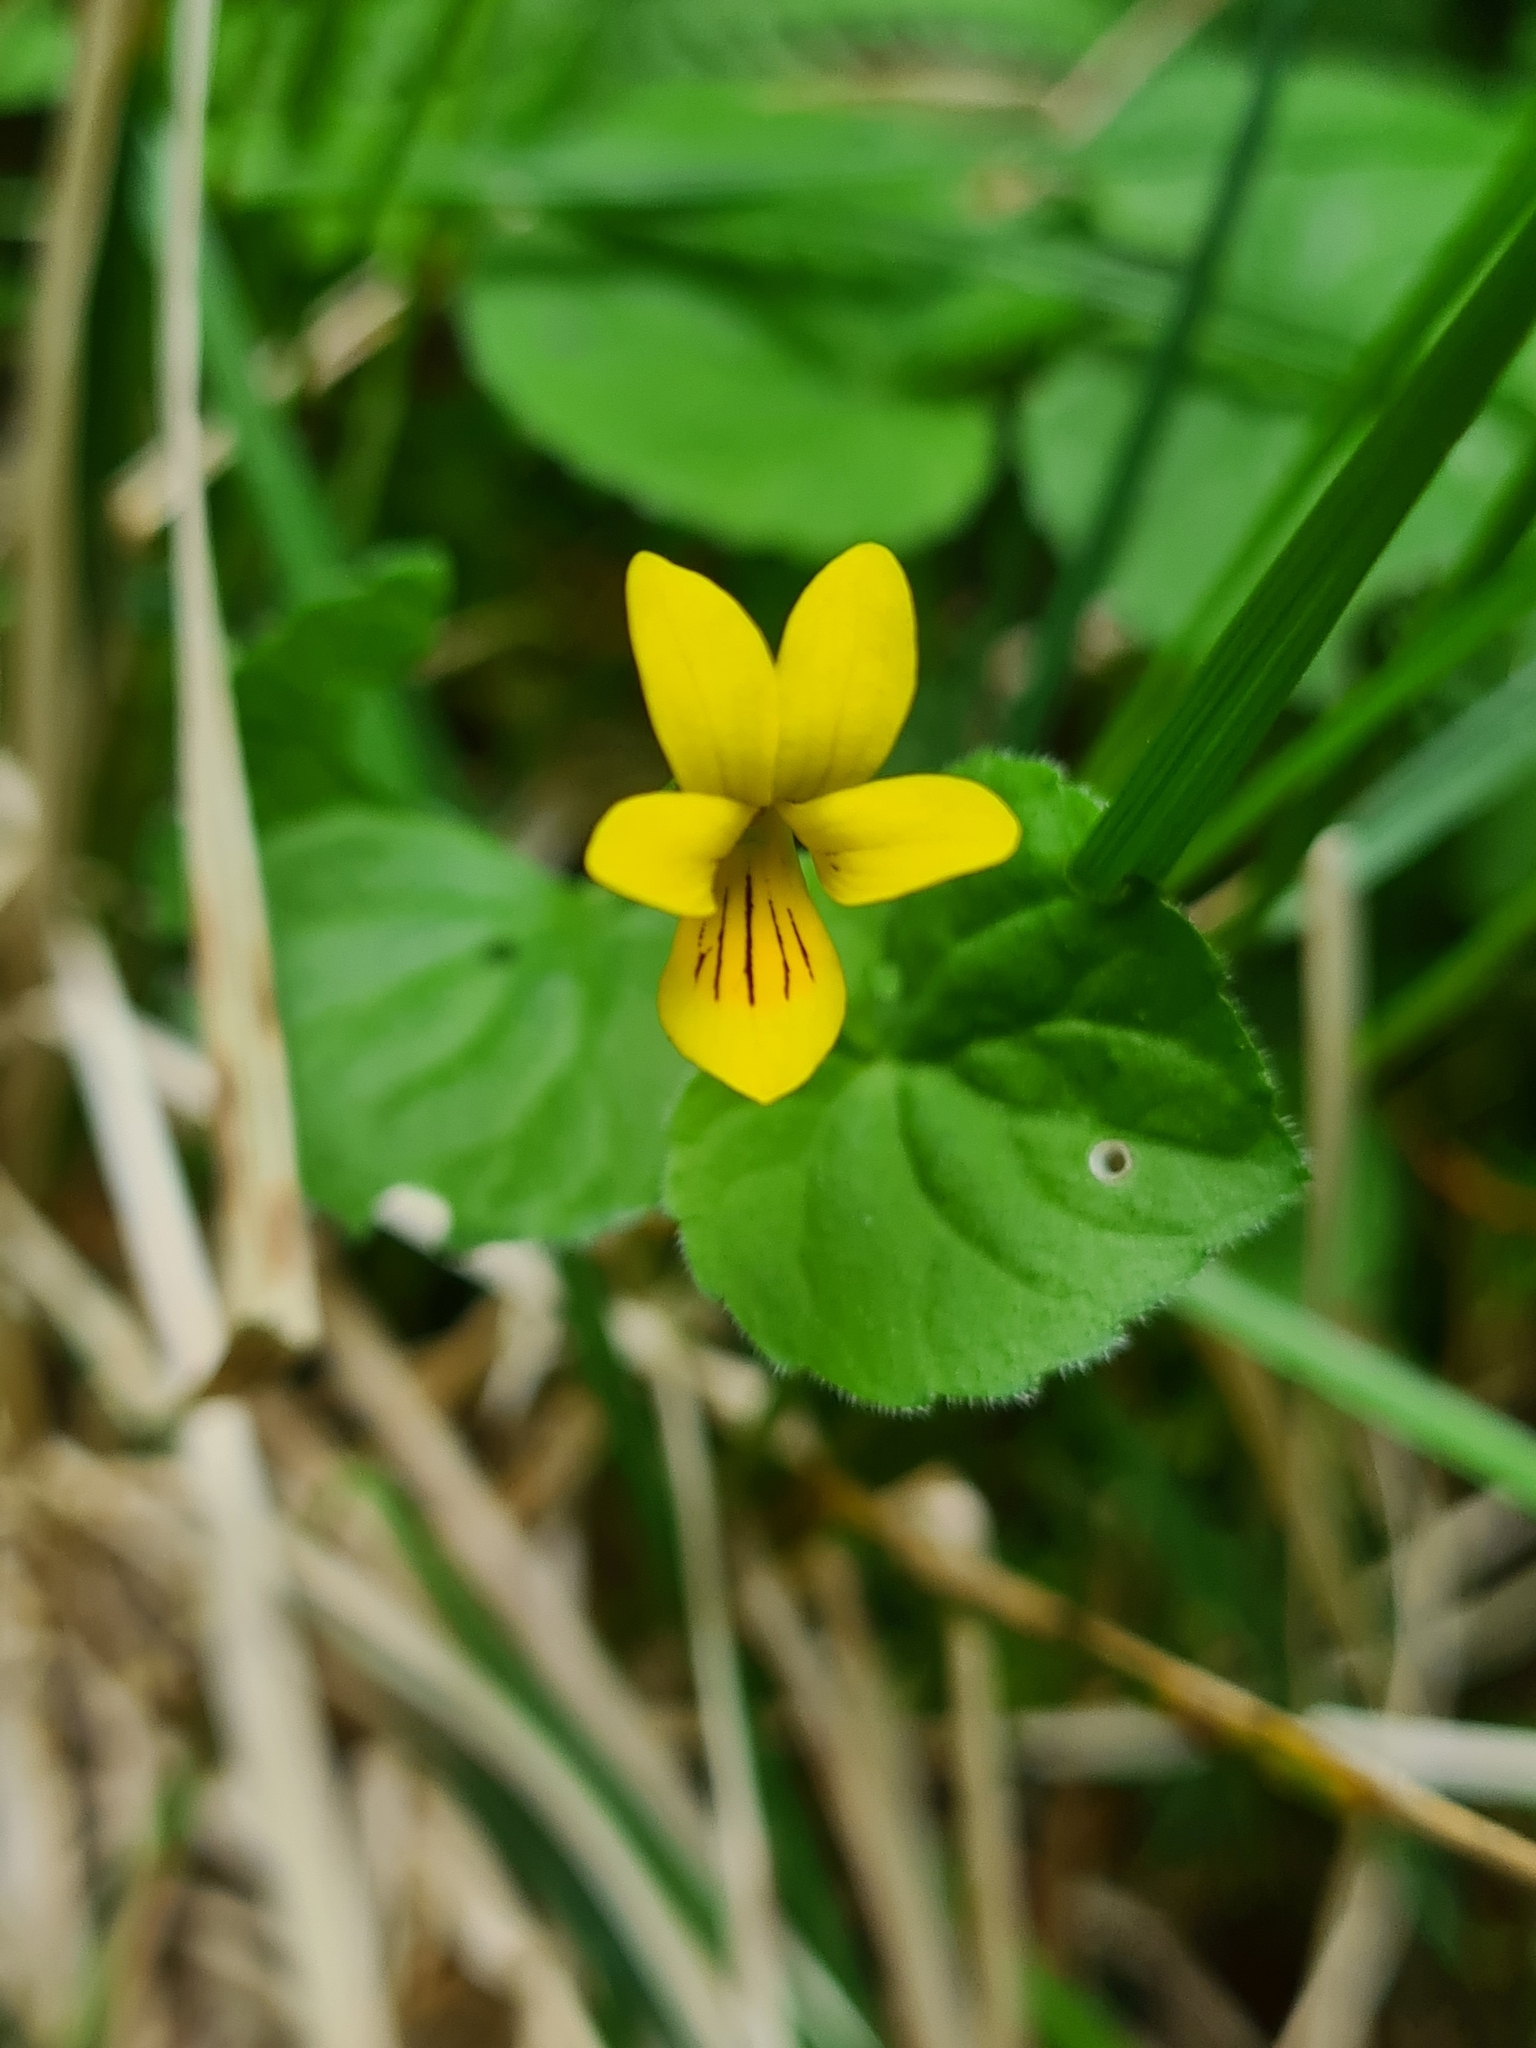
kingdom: Plantae
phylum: Tracheophyta
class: Magnoliopsida
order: Malpighiales
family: Violaceae
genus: Viola
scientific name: Viola biflora
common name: Alpine yellow violet
